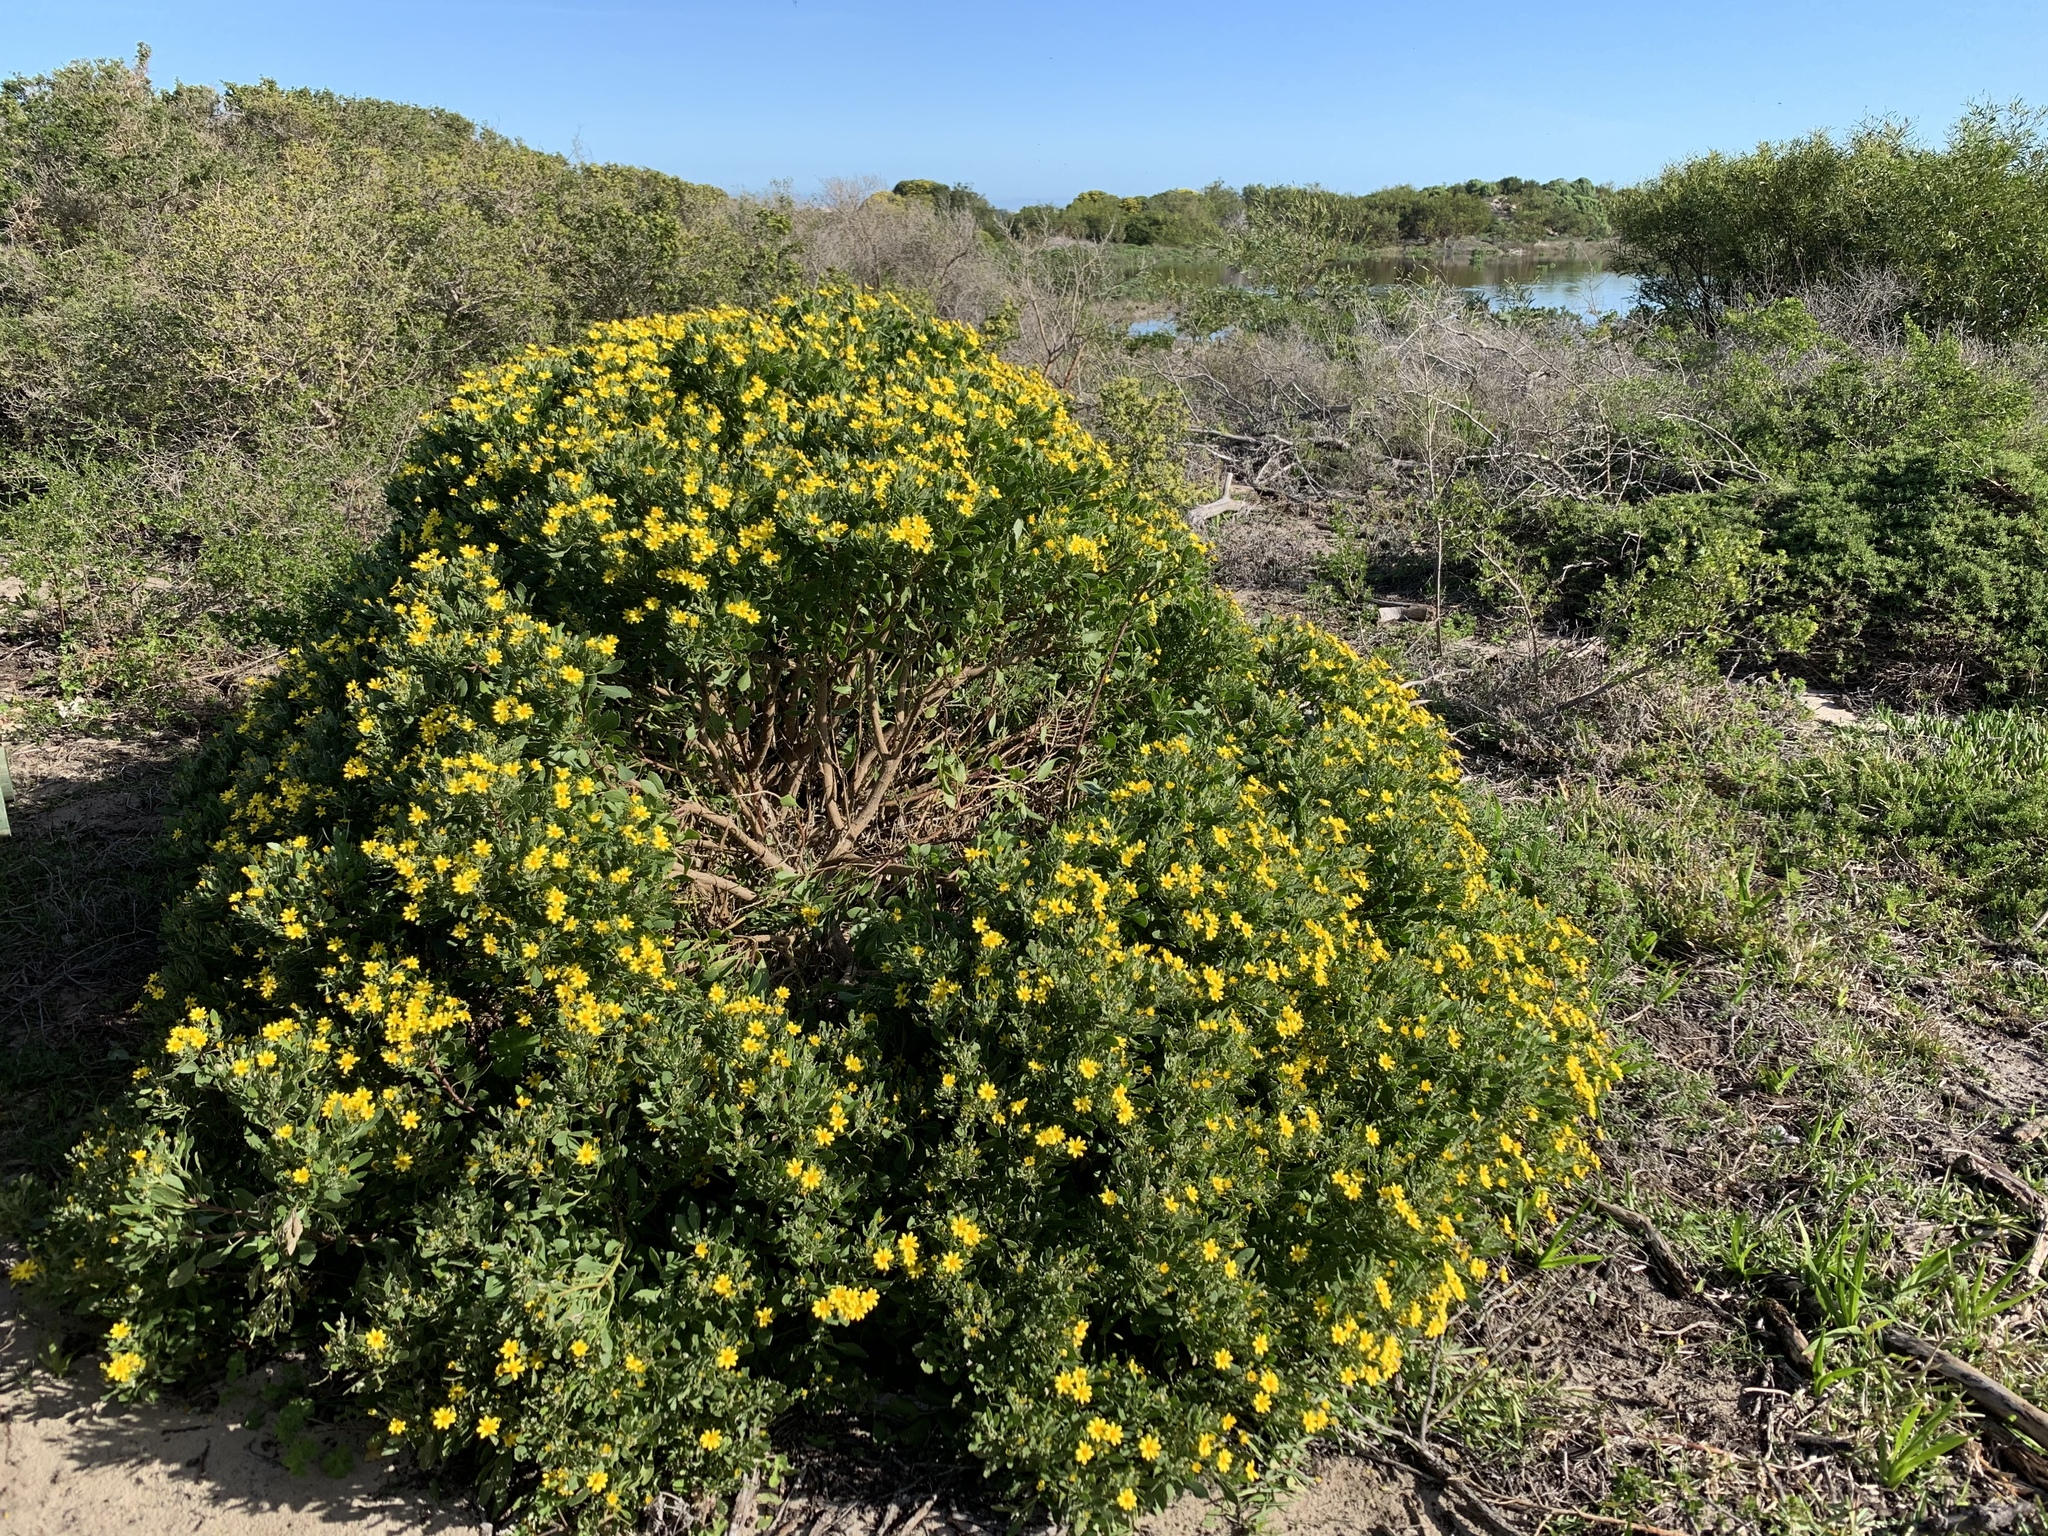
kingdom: Plantae
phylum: Tracheophyta
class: Magnoliopsida
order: Asterales
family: Asteraceae
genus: Osteospermum
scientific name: Osteospermum moniliferum
